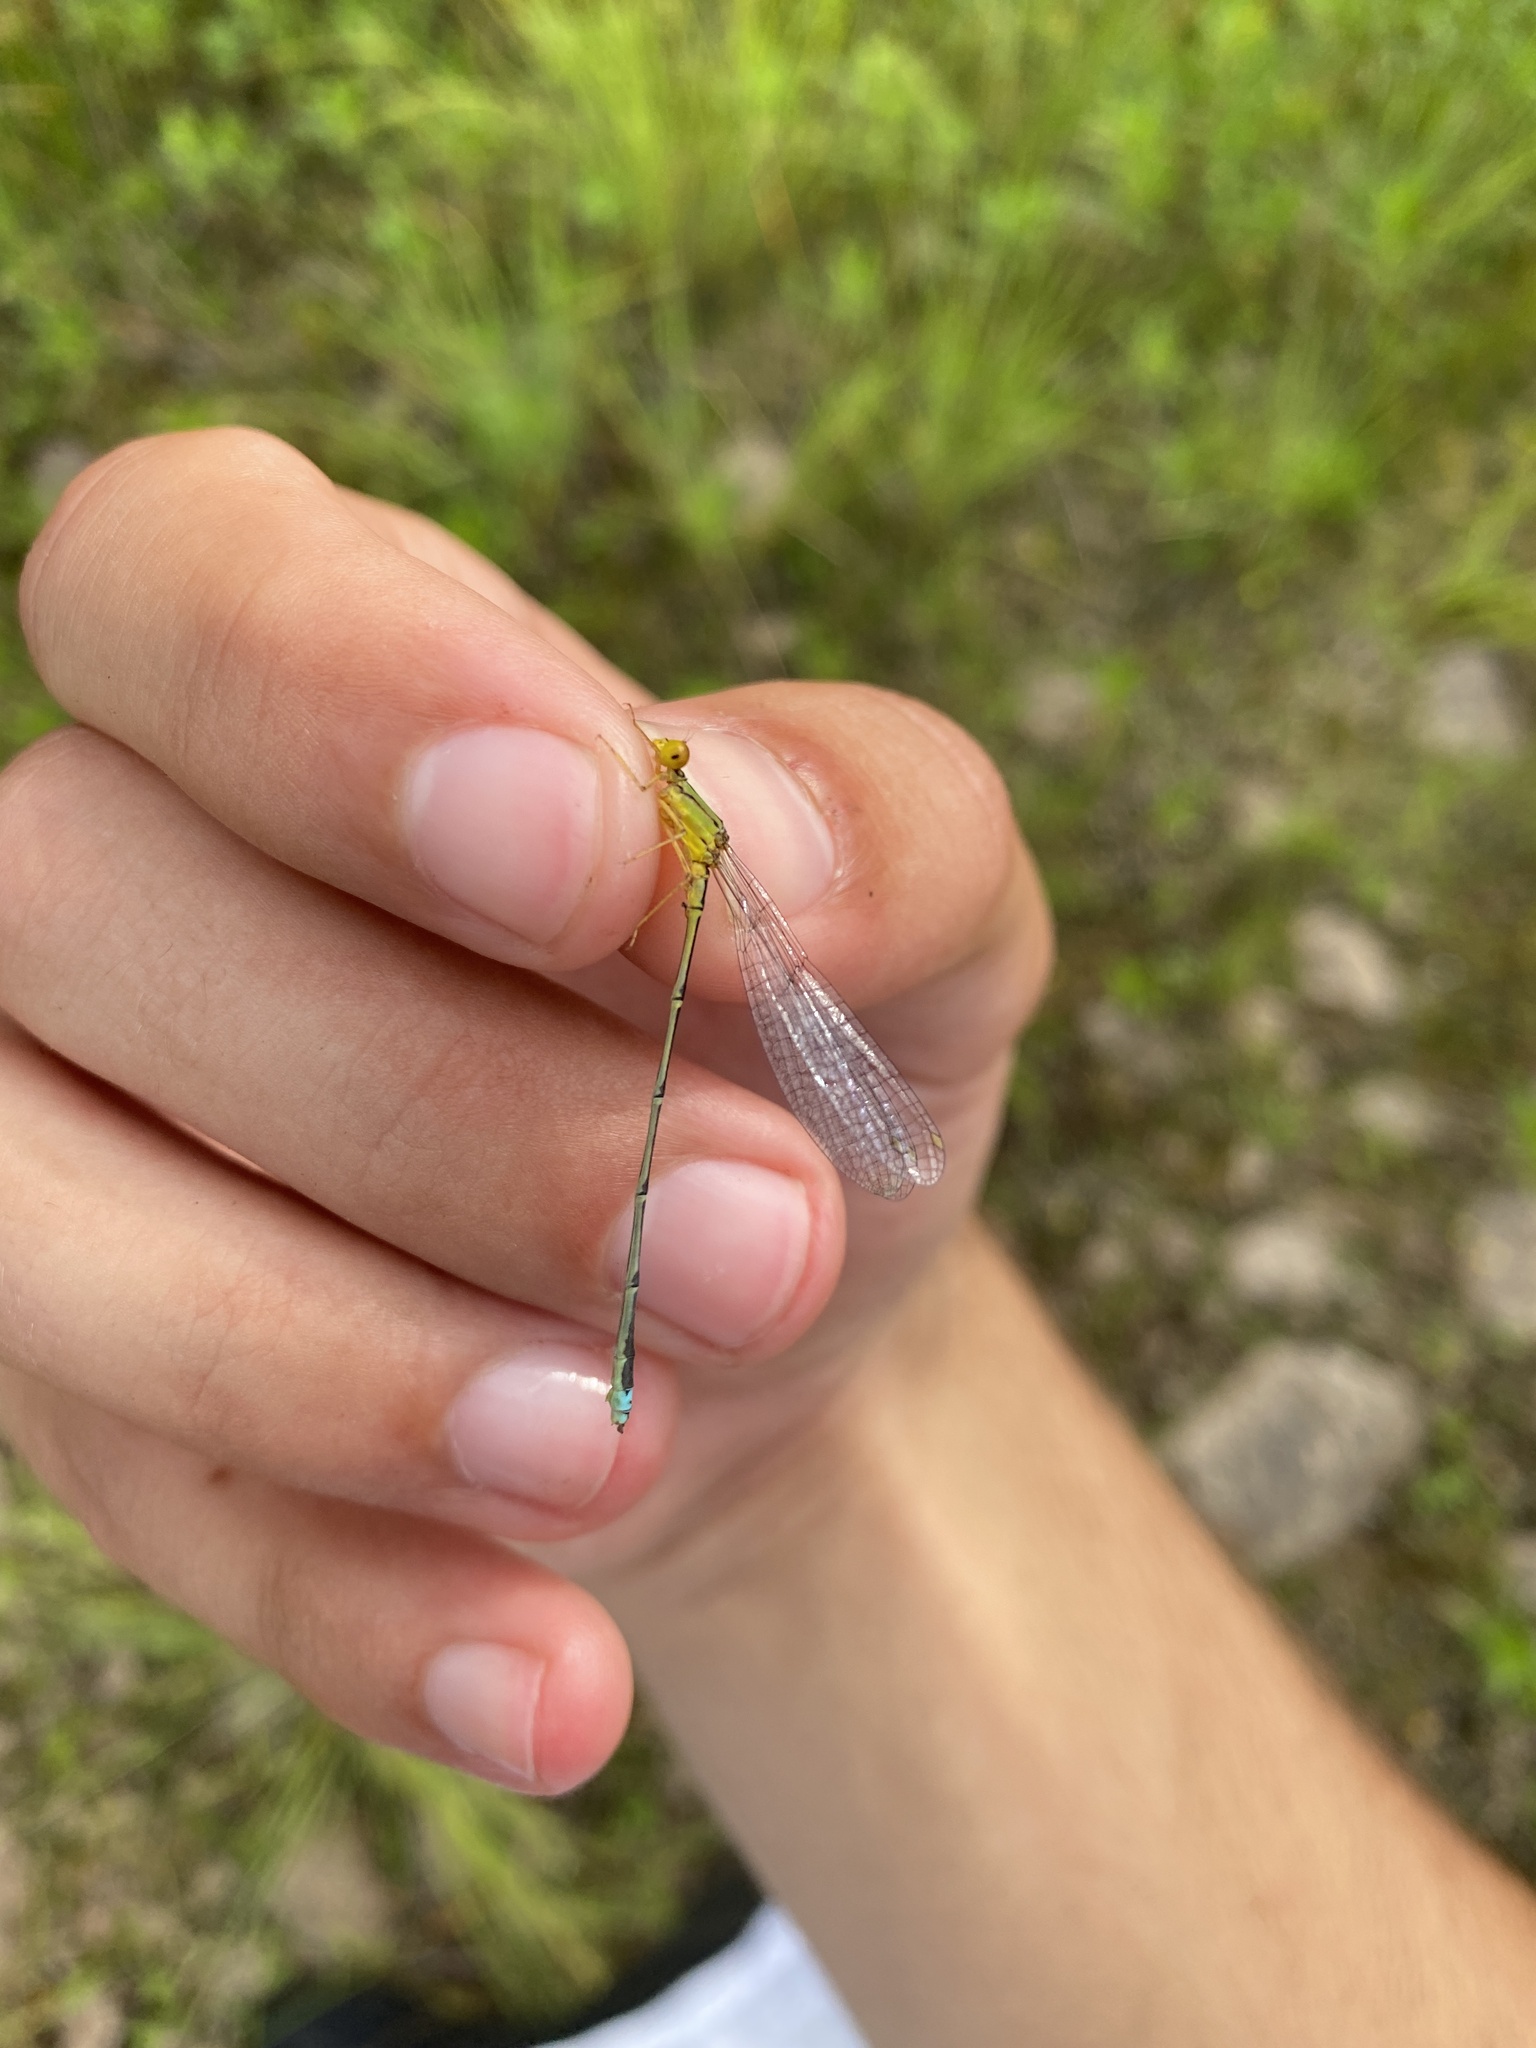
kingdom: Animalia
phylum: Arthropoda
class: Insecta
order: Odonata
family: Coenagrionidae
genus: Enallagma
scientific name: Enallagma vesperum
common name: Vesper bluet
